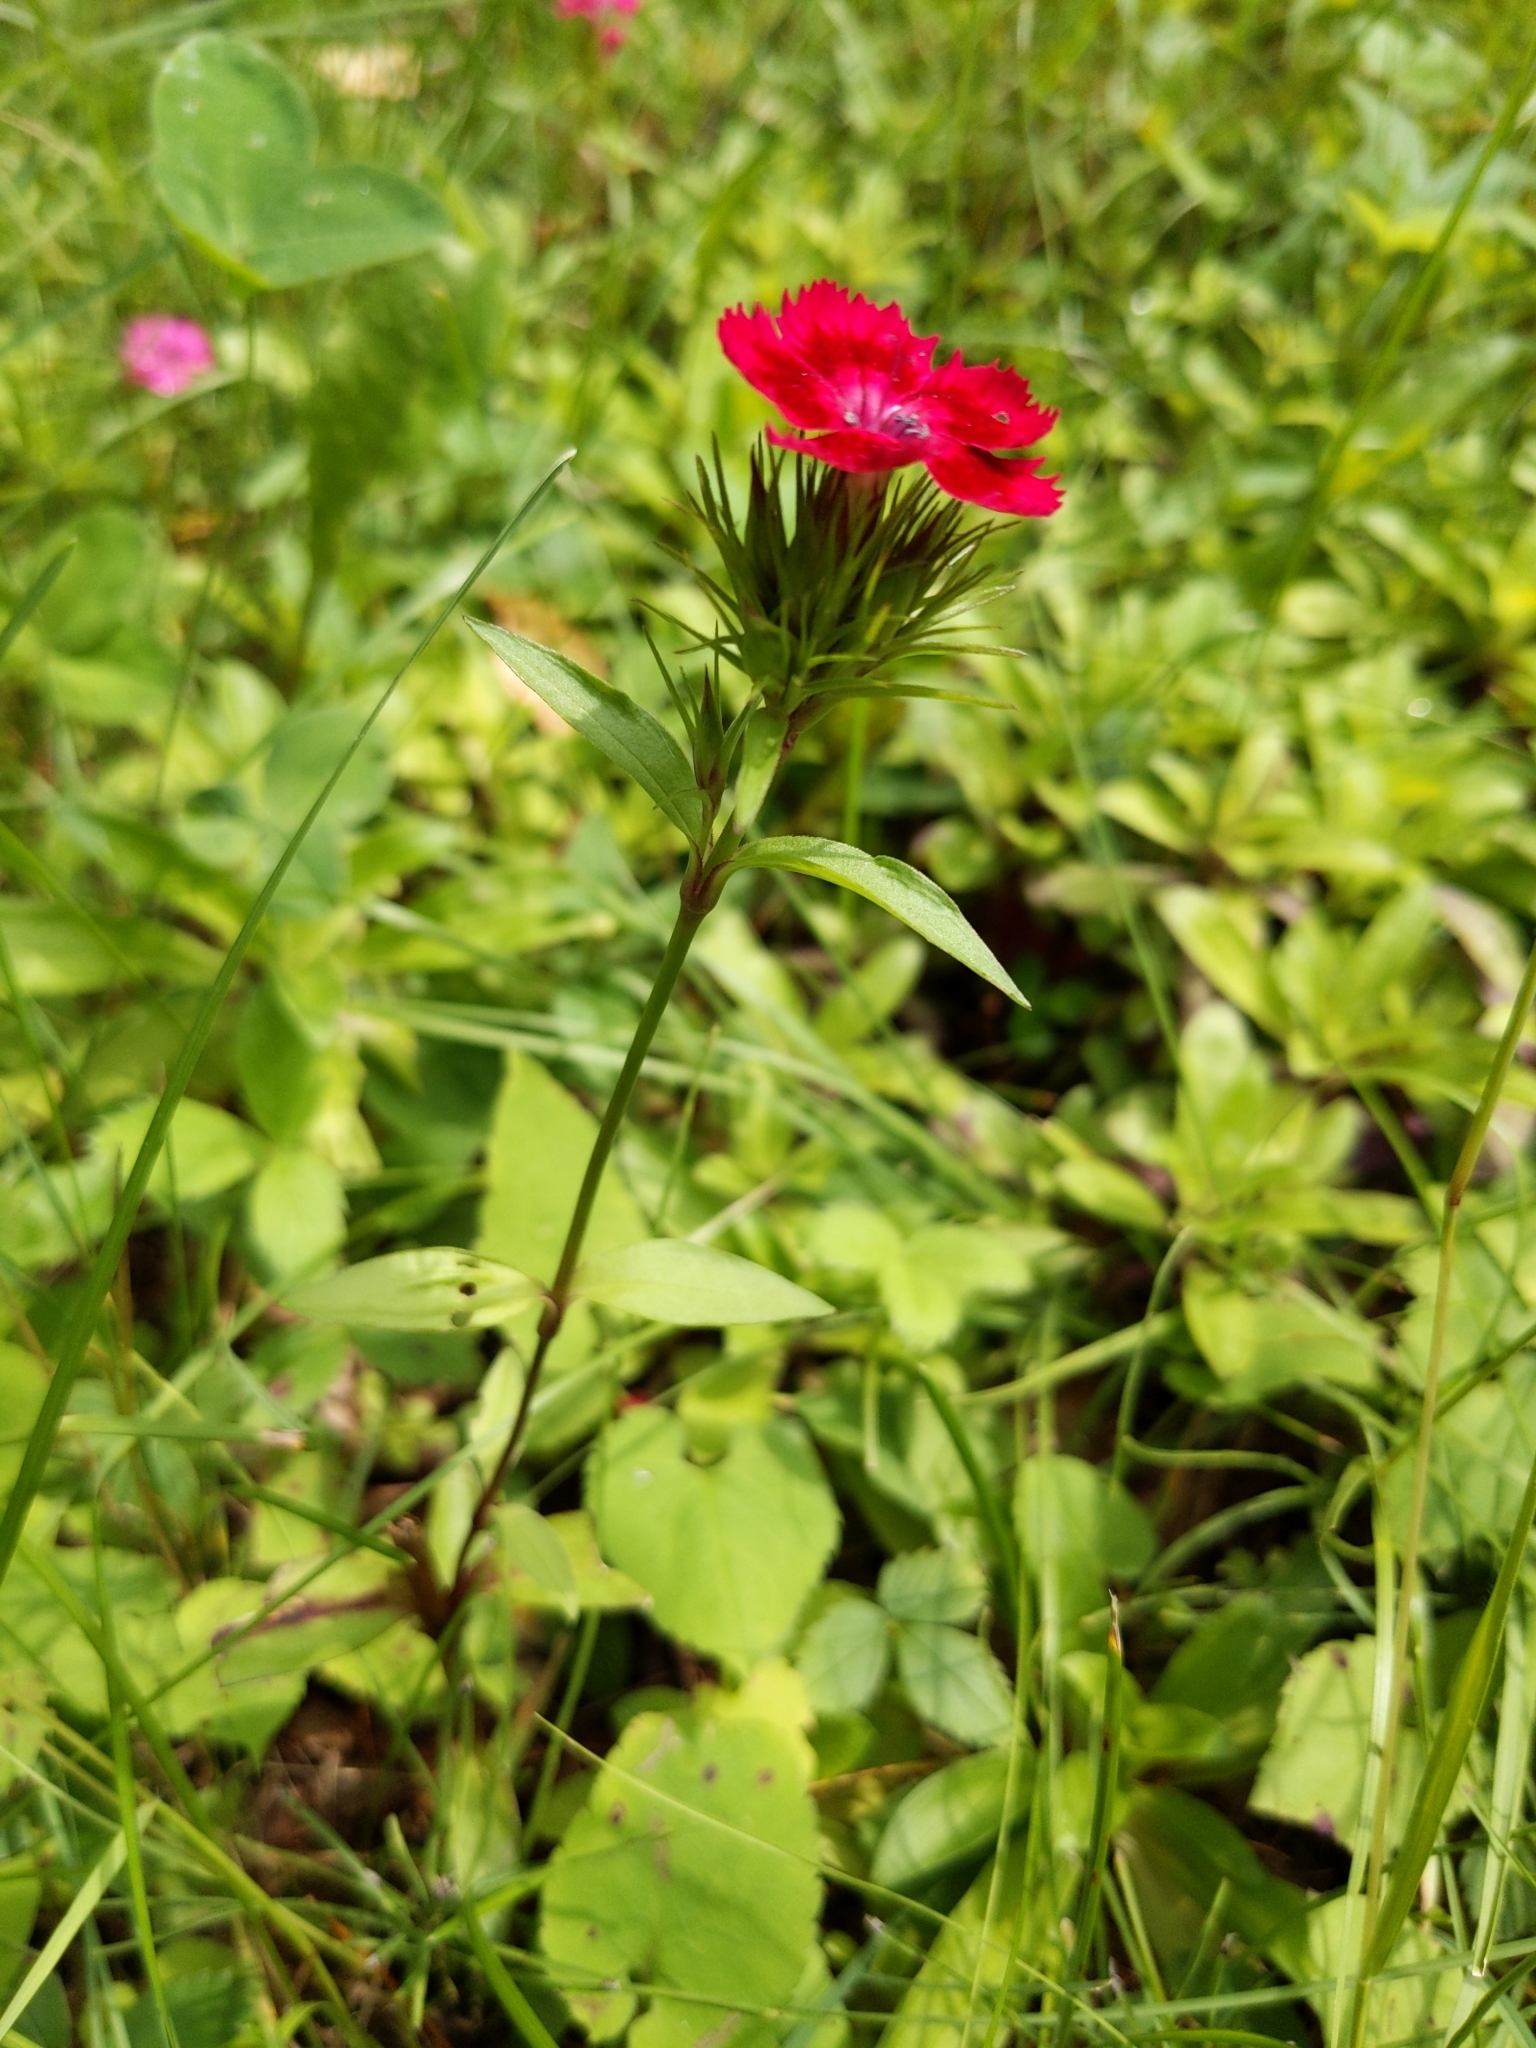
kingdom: Plantae
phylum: Tracheophyta
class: Magnoliopsida
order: Caryophyllales
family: Caryophyllaceae
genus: Dianthus
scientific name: Dianthus barbatus
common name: Sweet-william
